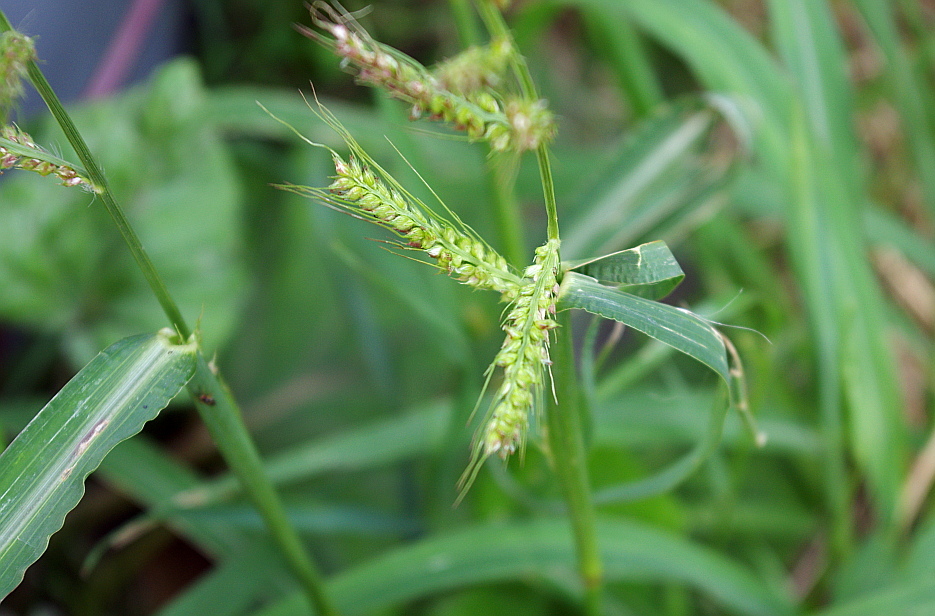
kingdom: Plantae
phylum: Tracheophyta
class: Liliopsida
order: Poales
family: Poaceae
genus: Echinochloa
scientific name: Echinochloa crus-galli
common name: Cockspur
